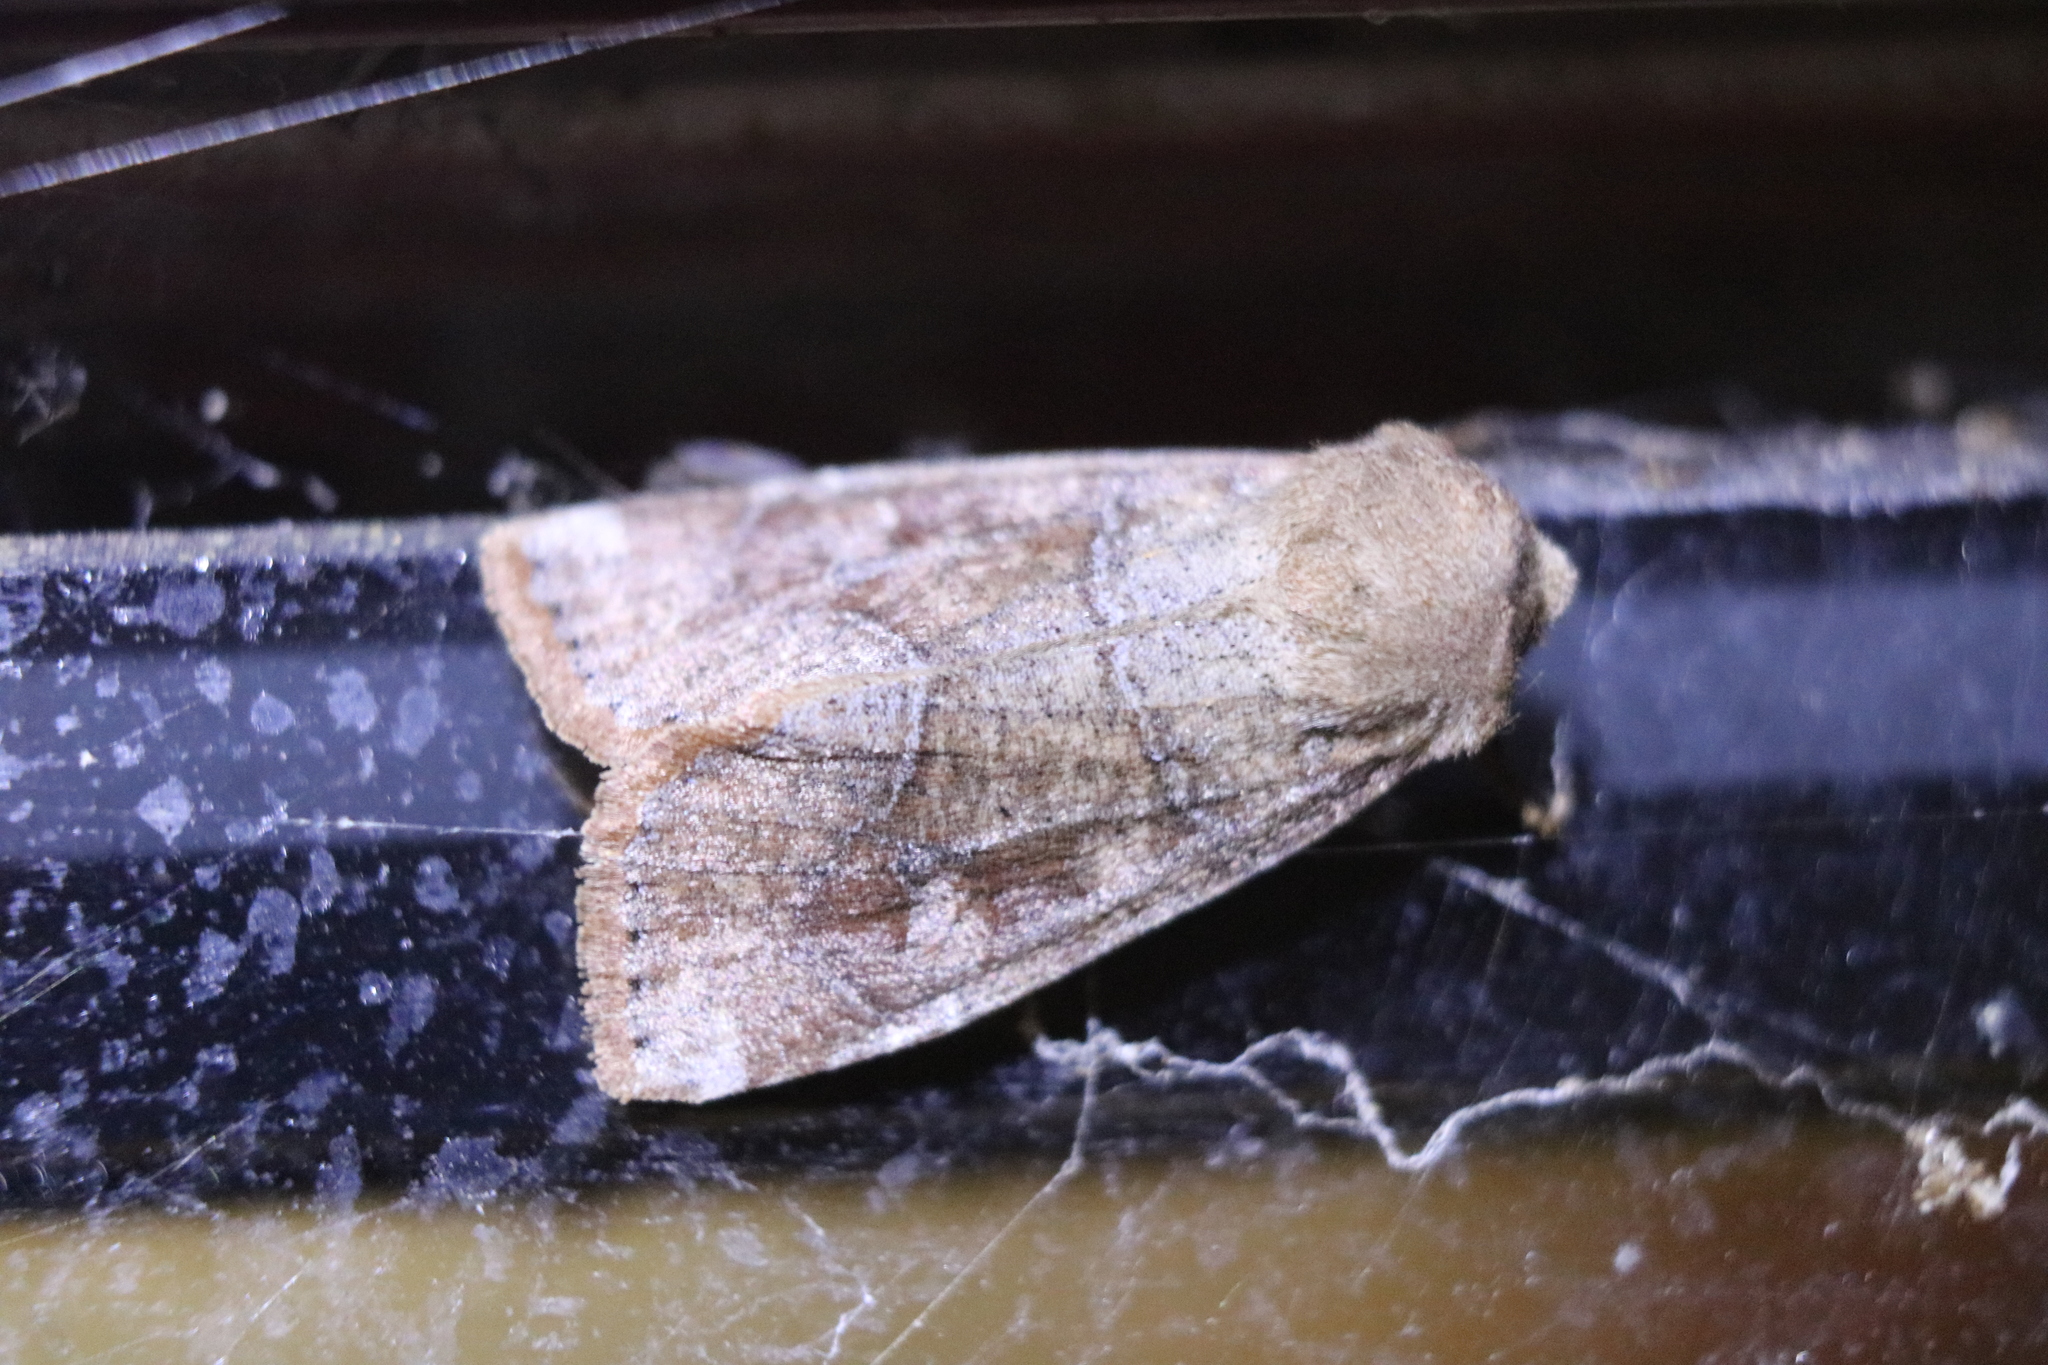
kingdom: Animalia
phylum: Arthropoda
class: Insecta
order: Lepidoptera
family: Noctuidae
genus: Crocigrapha
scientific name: Crocigrapha normani
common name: Norman's quaker
